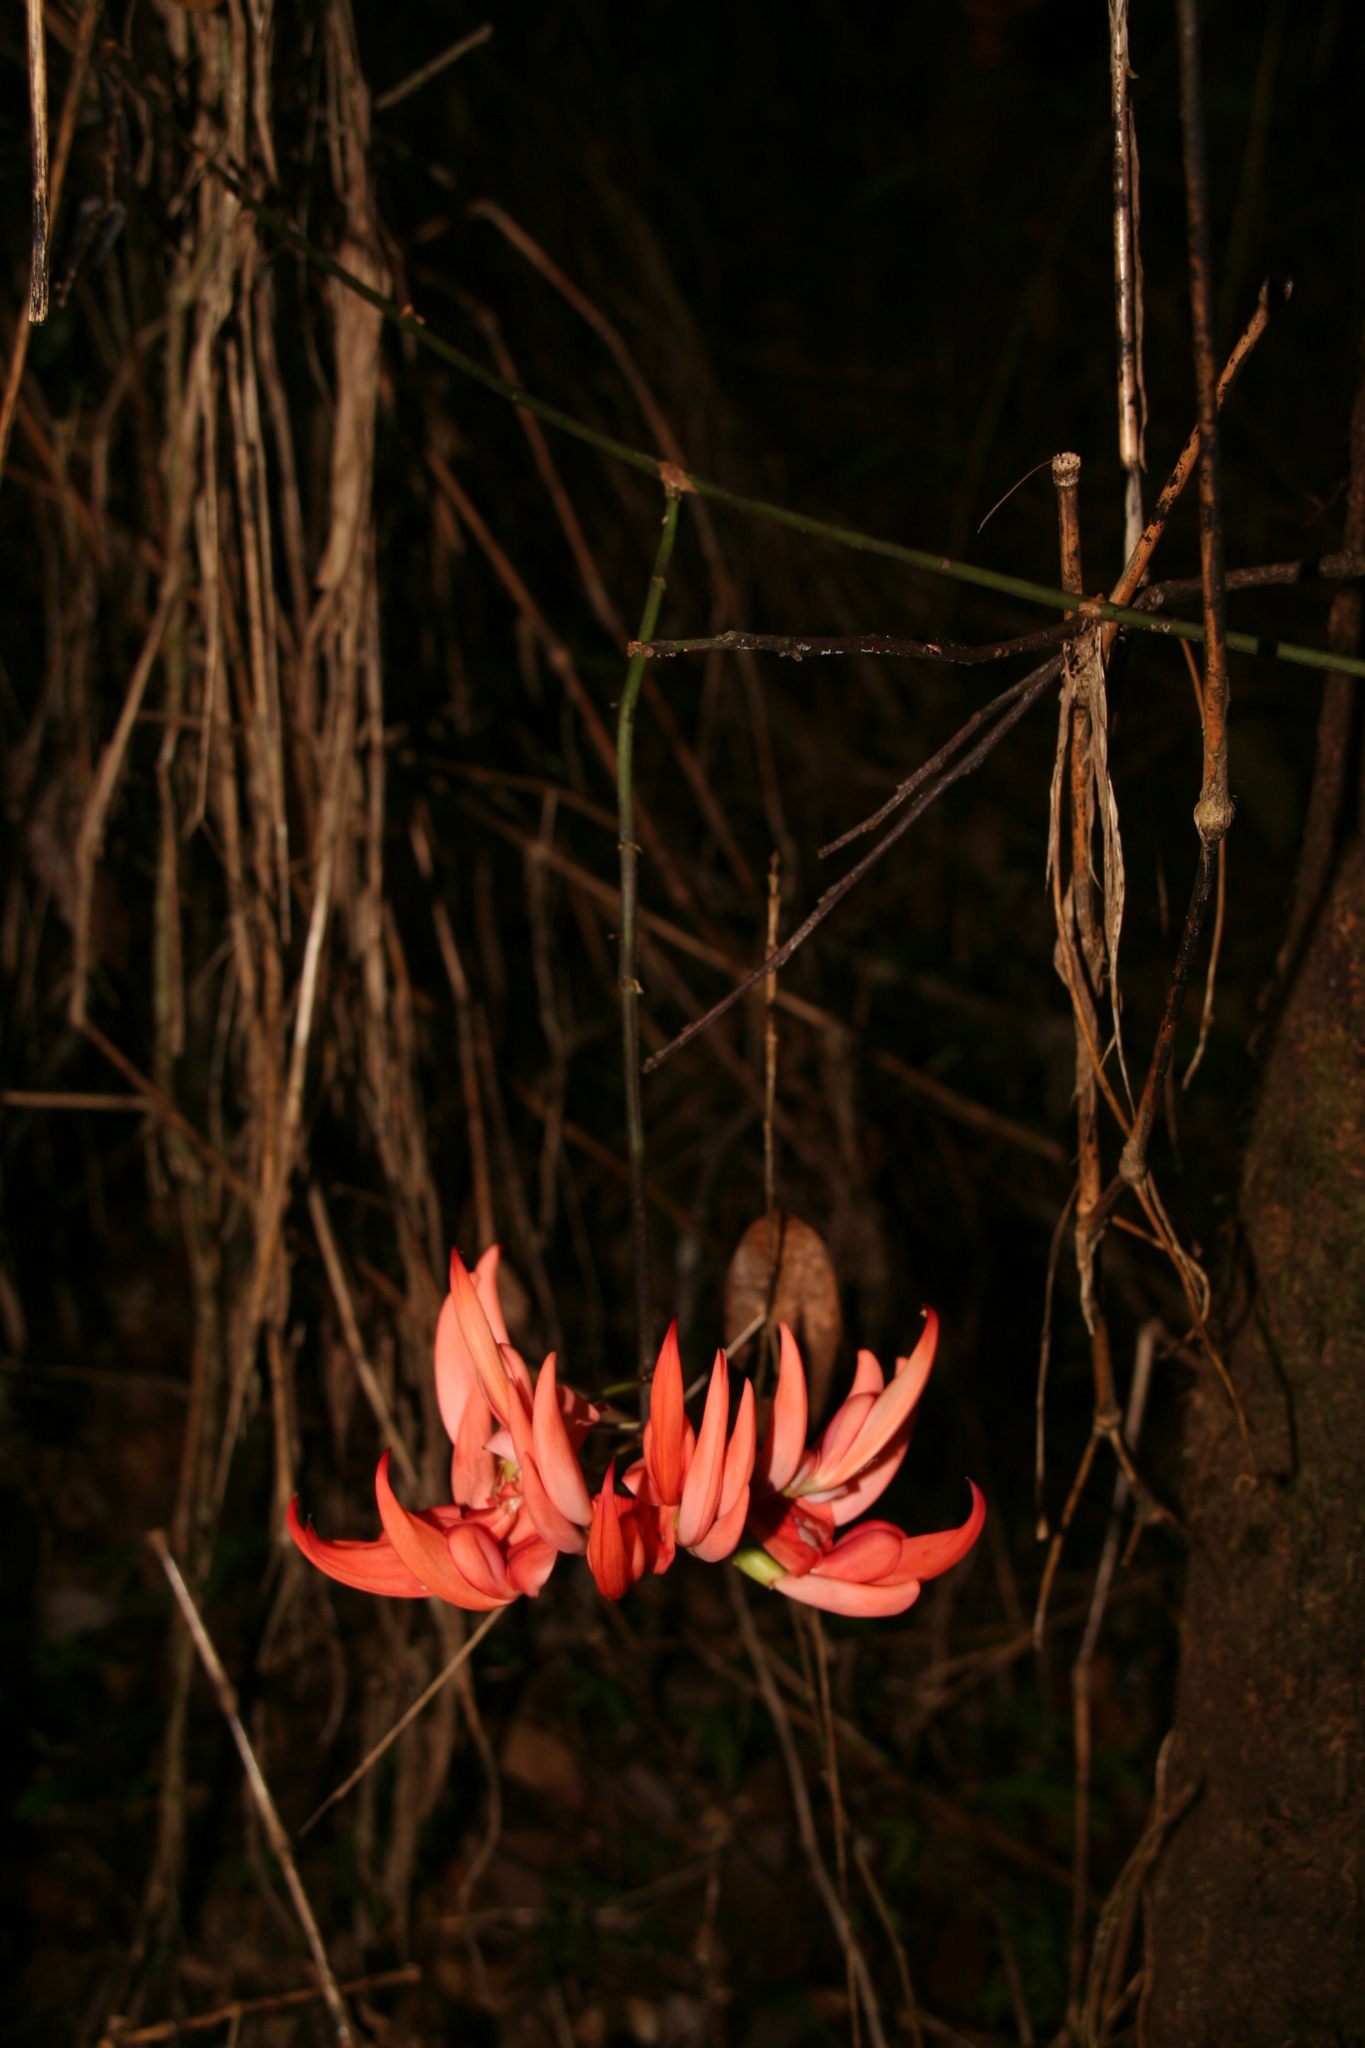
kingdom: Plantae
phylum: Tracheophyta
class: Magnoliopsida
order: Fabales
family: Fabaceae
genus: Strongylodon
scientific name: Strongylodon madagascariensis
